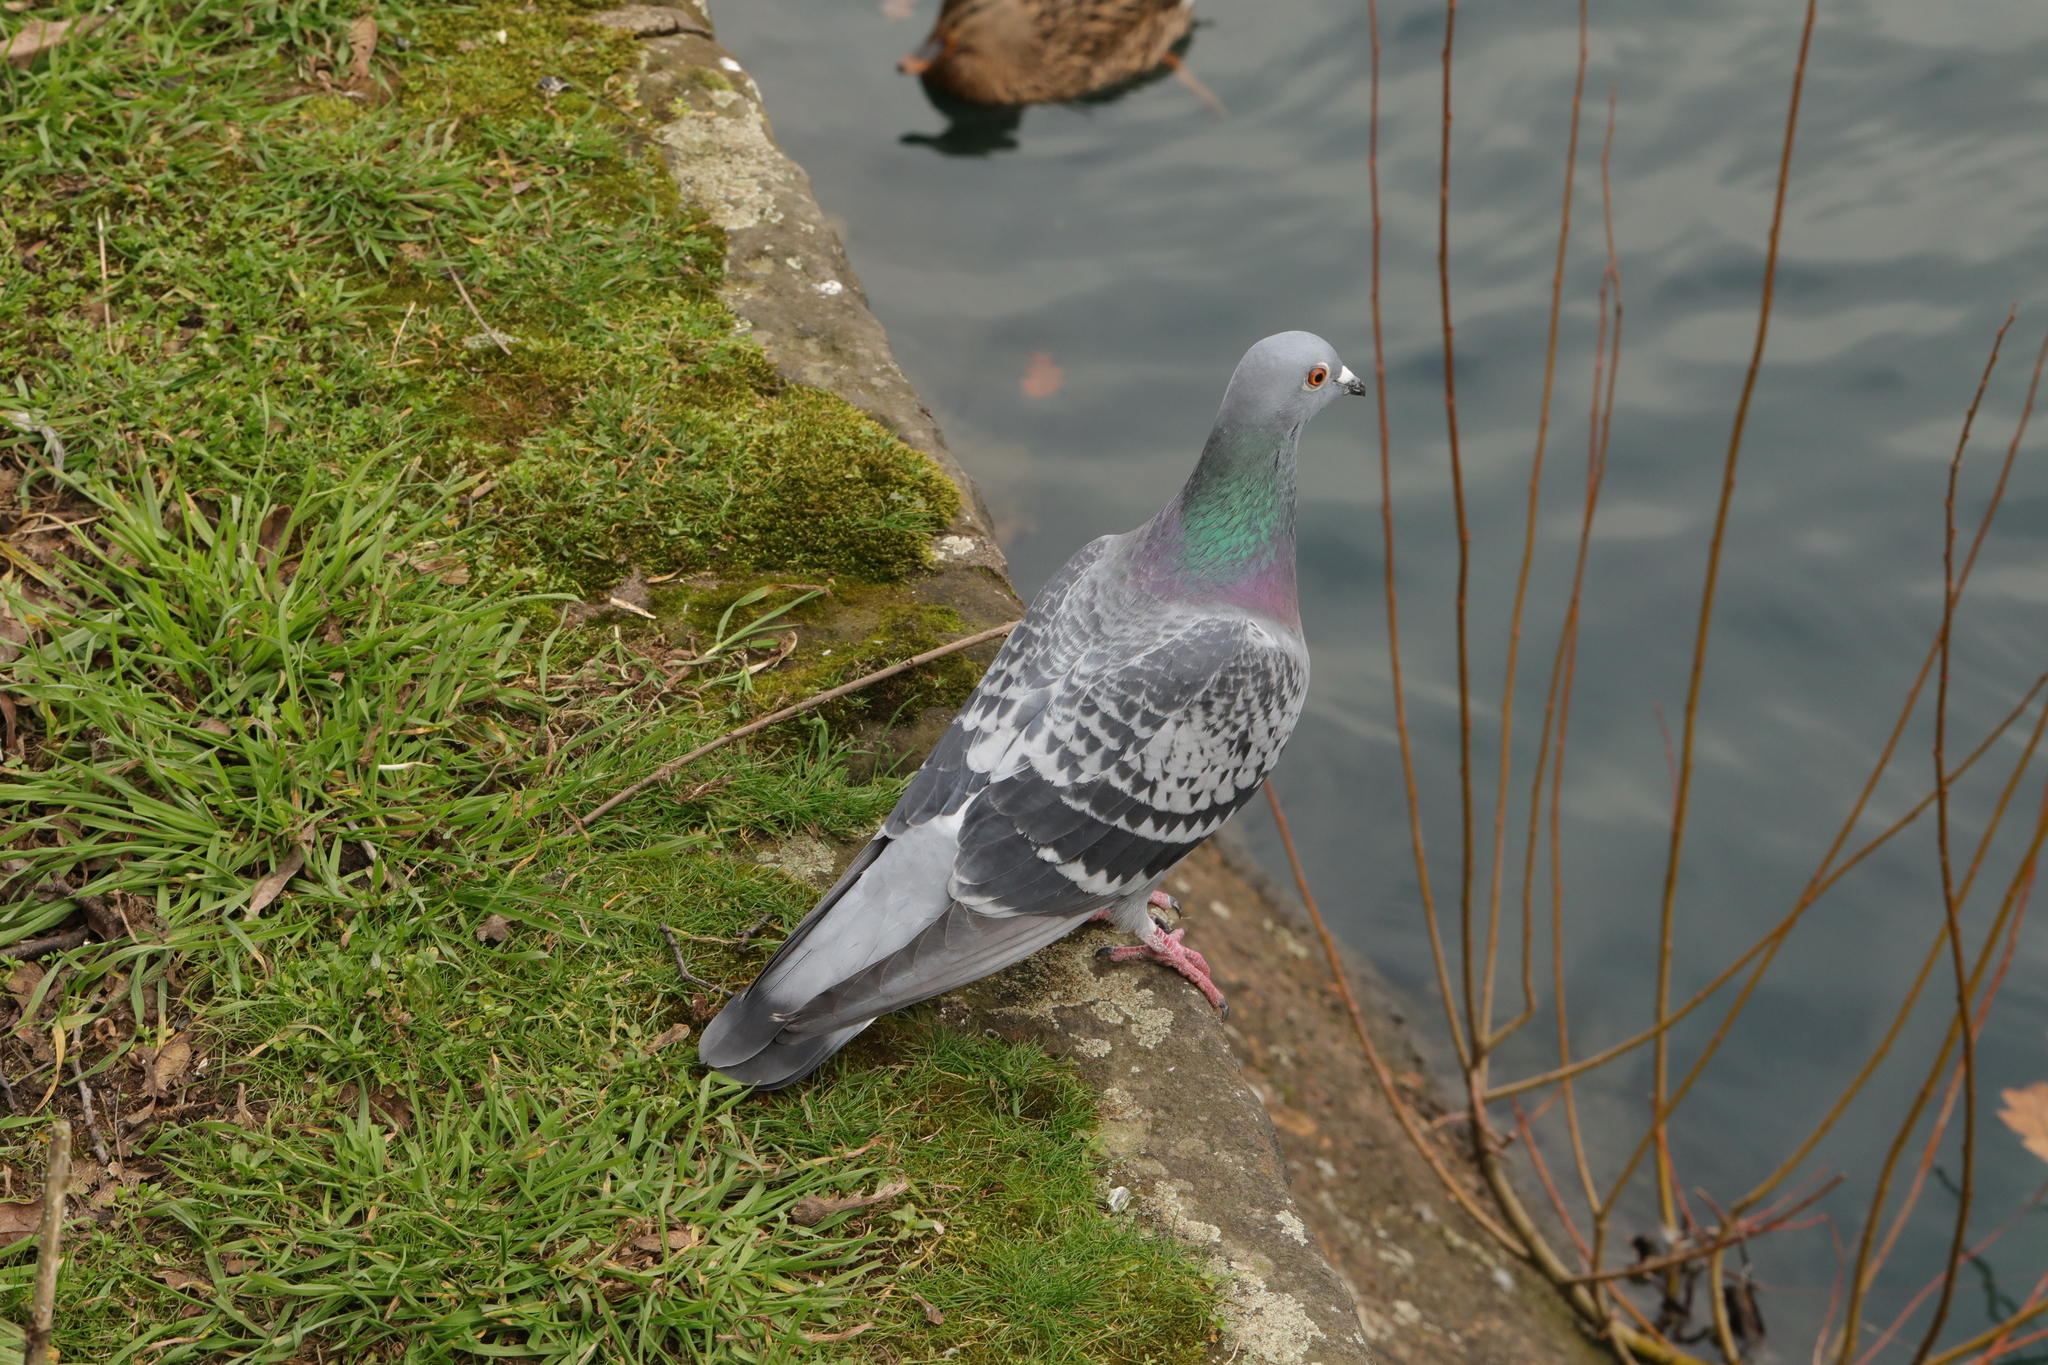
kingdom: Animalia
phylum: Chordata
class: Aves
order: Columbiformes
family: Columbidae
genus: Columba
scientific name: Columba livia
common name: Rock pigeon
